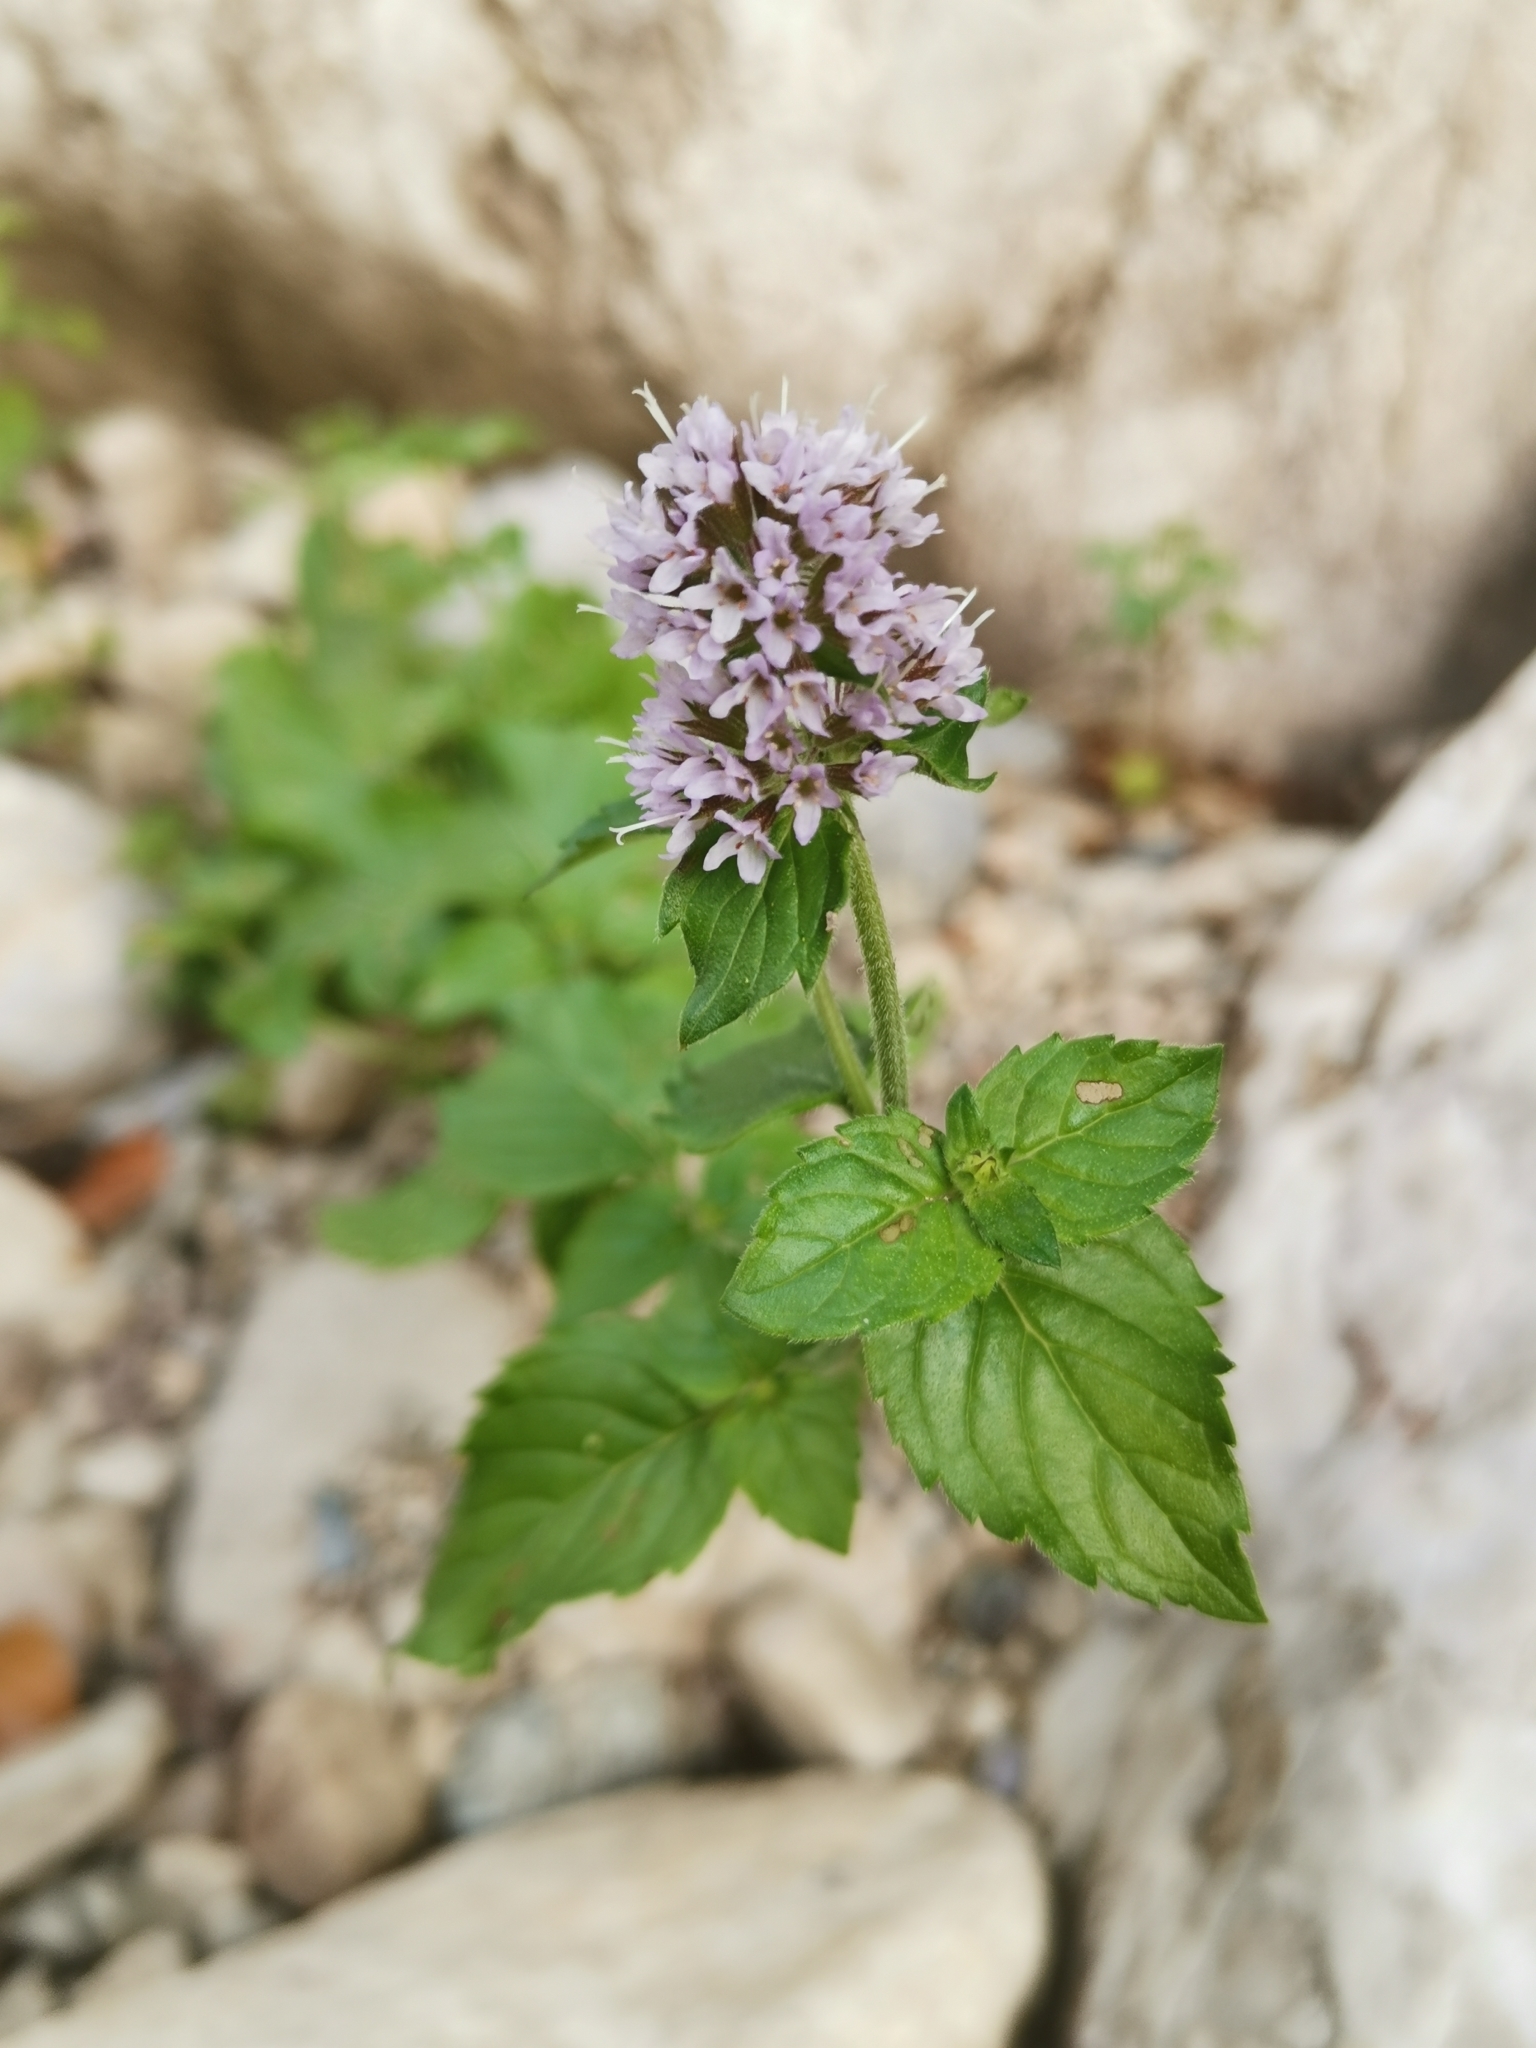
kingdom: Plantae
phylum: Tracheophyta
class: Magnoliopsida
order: Lamiales
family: Lamiaceae
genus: Mentha
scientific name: Mentha aquatica
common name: Water mint
